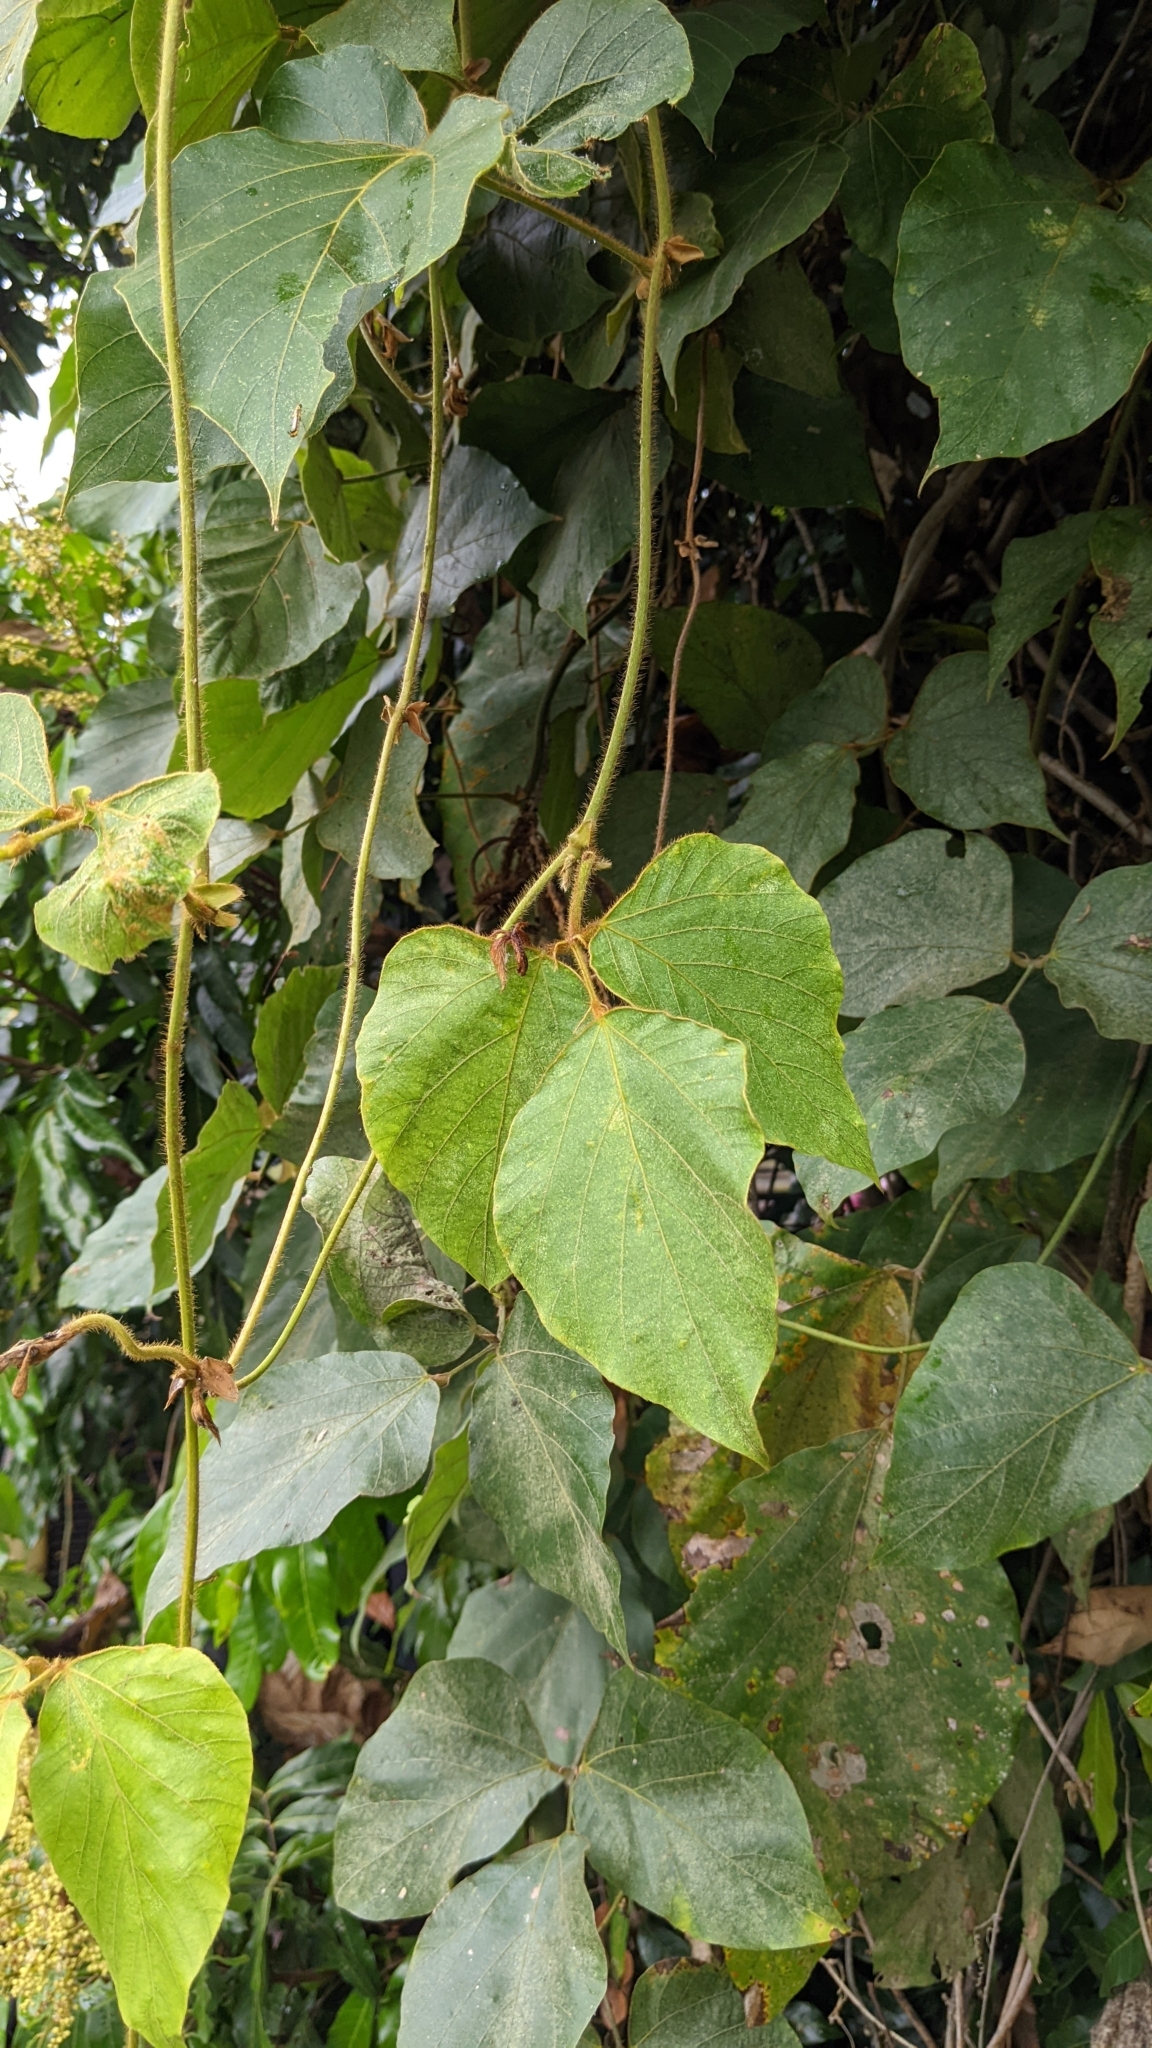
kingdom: Plantae
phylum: Tracheophyta
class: Magnoliopsida
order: Fabales
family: Fabaceae
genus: Pueraria
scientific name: Pueraria montana
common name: Kudzu
